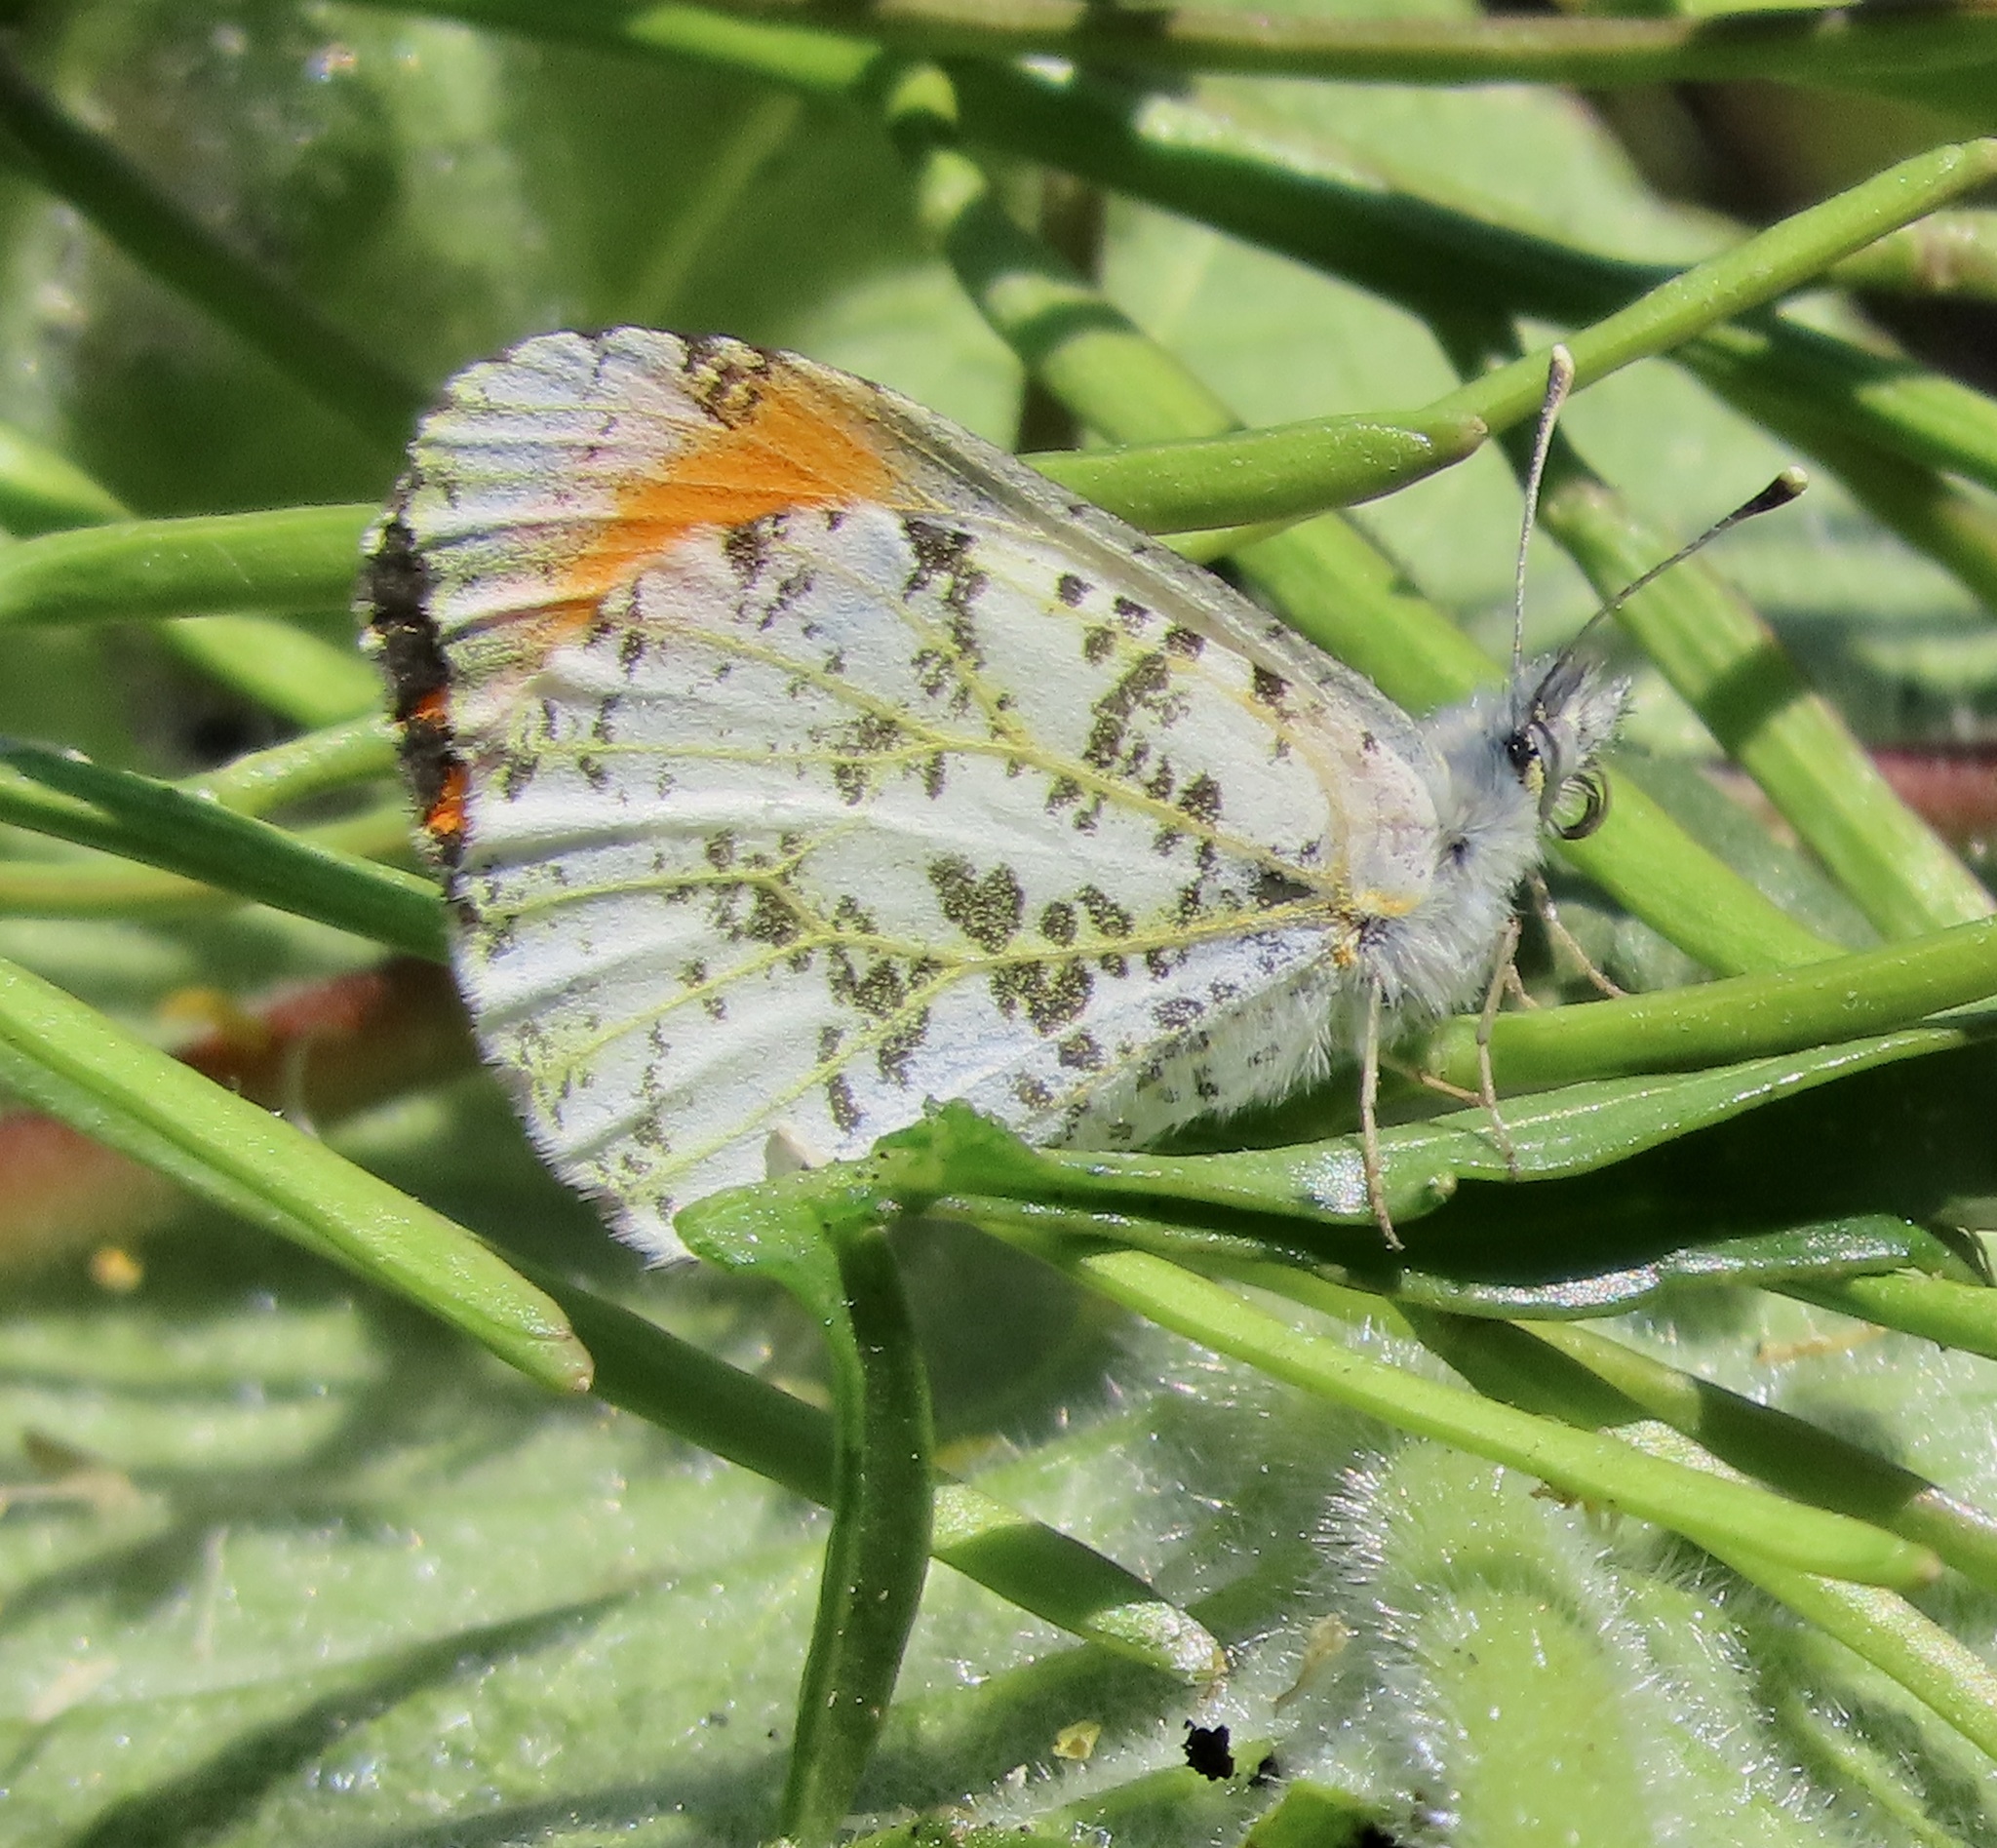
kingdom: Animalia
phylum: Arthropoda
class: Insecta
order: Lepidoptera
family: Pieridae
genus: Anthocharis
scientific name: Anthocharis sara
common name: Sara's orangetip
